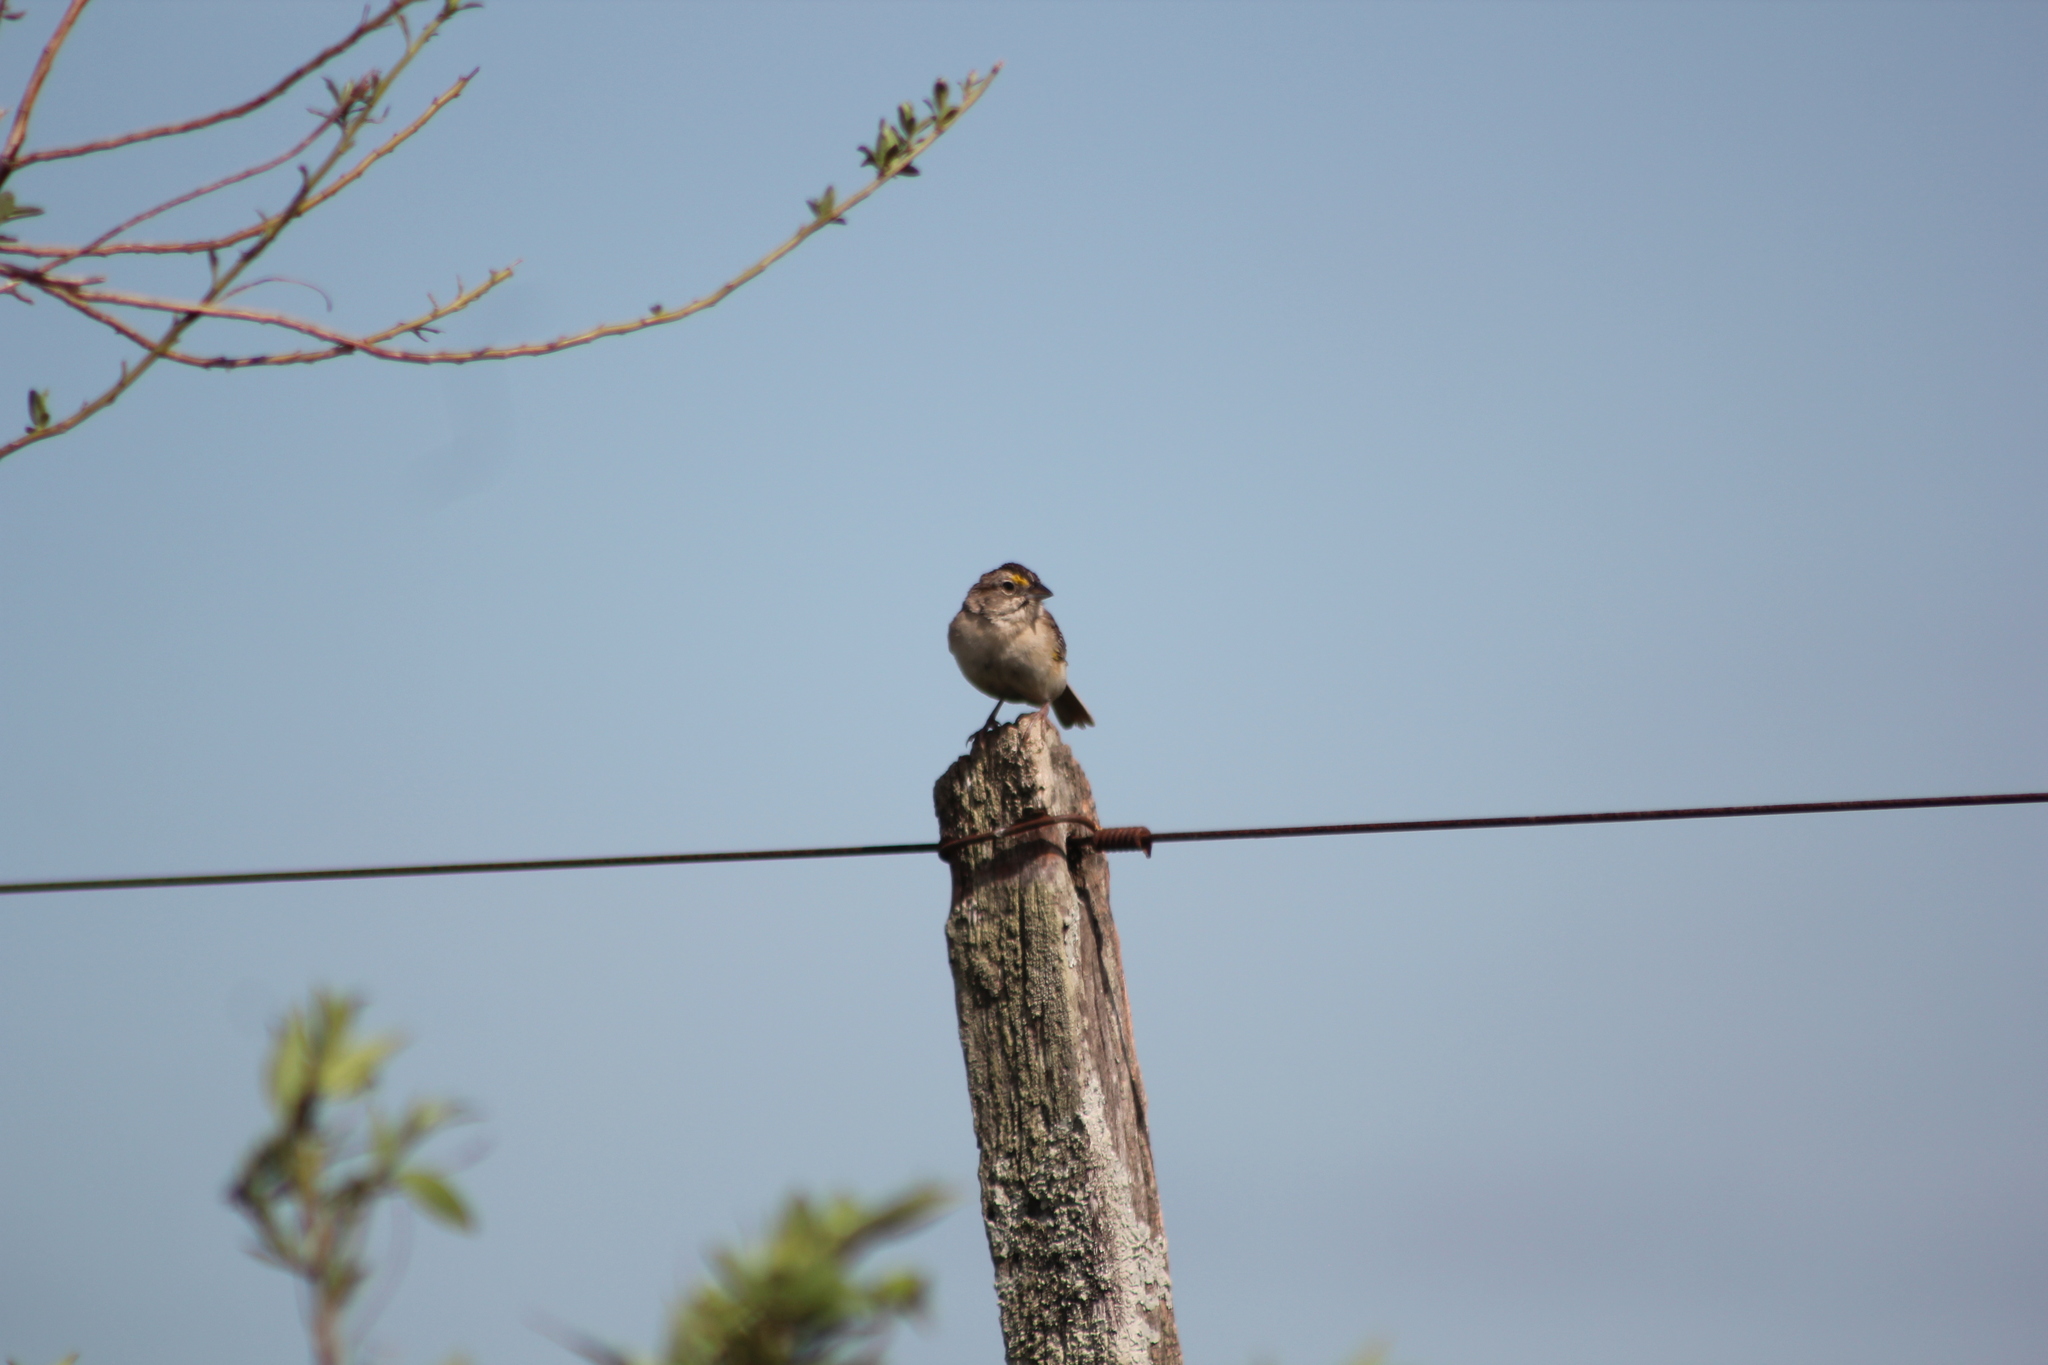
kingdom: Animalia
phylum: Chordata
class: Aves
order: Passeriformes
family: Passerellidae
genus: Ammodramus
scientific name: Ammodramus humeralis
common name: Grassland sparrow
